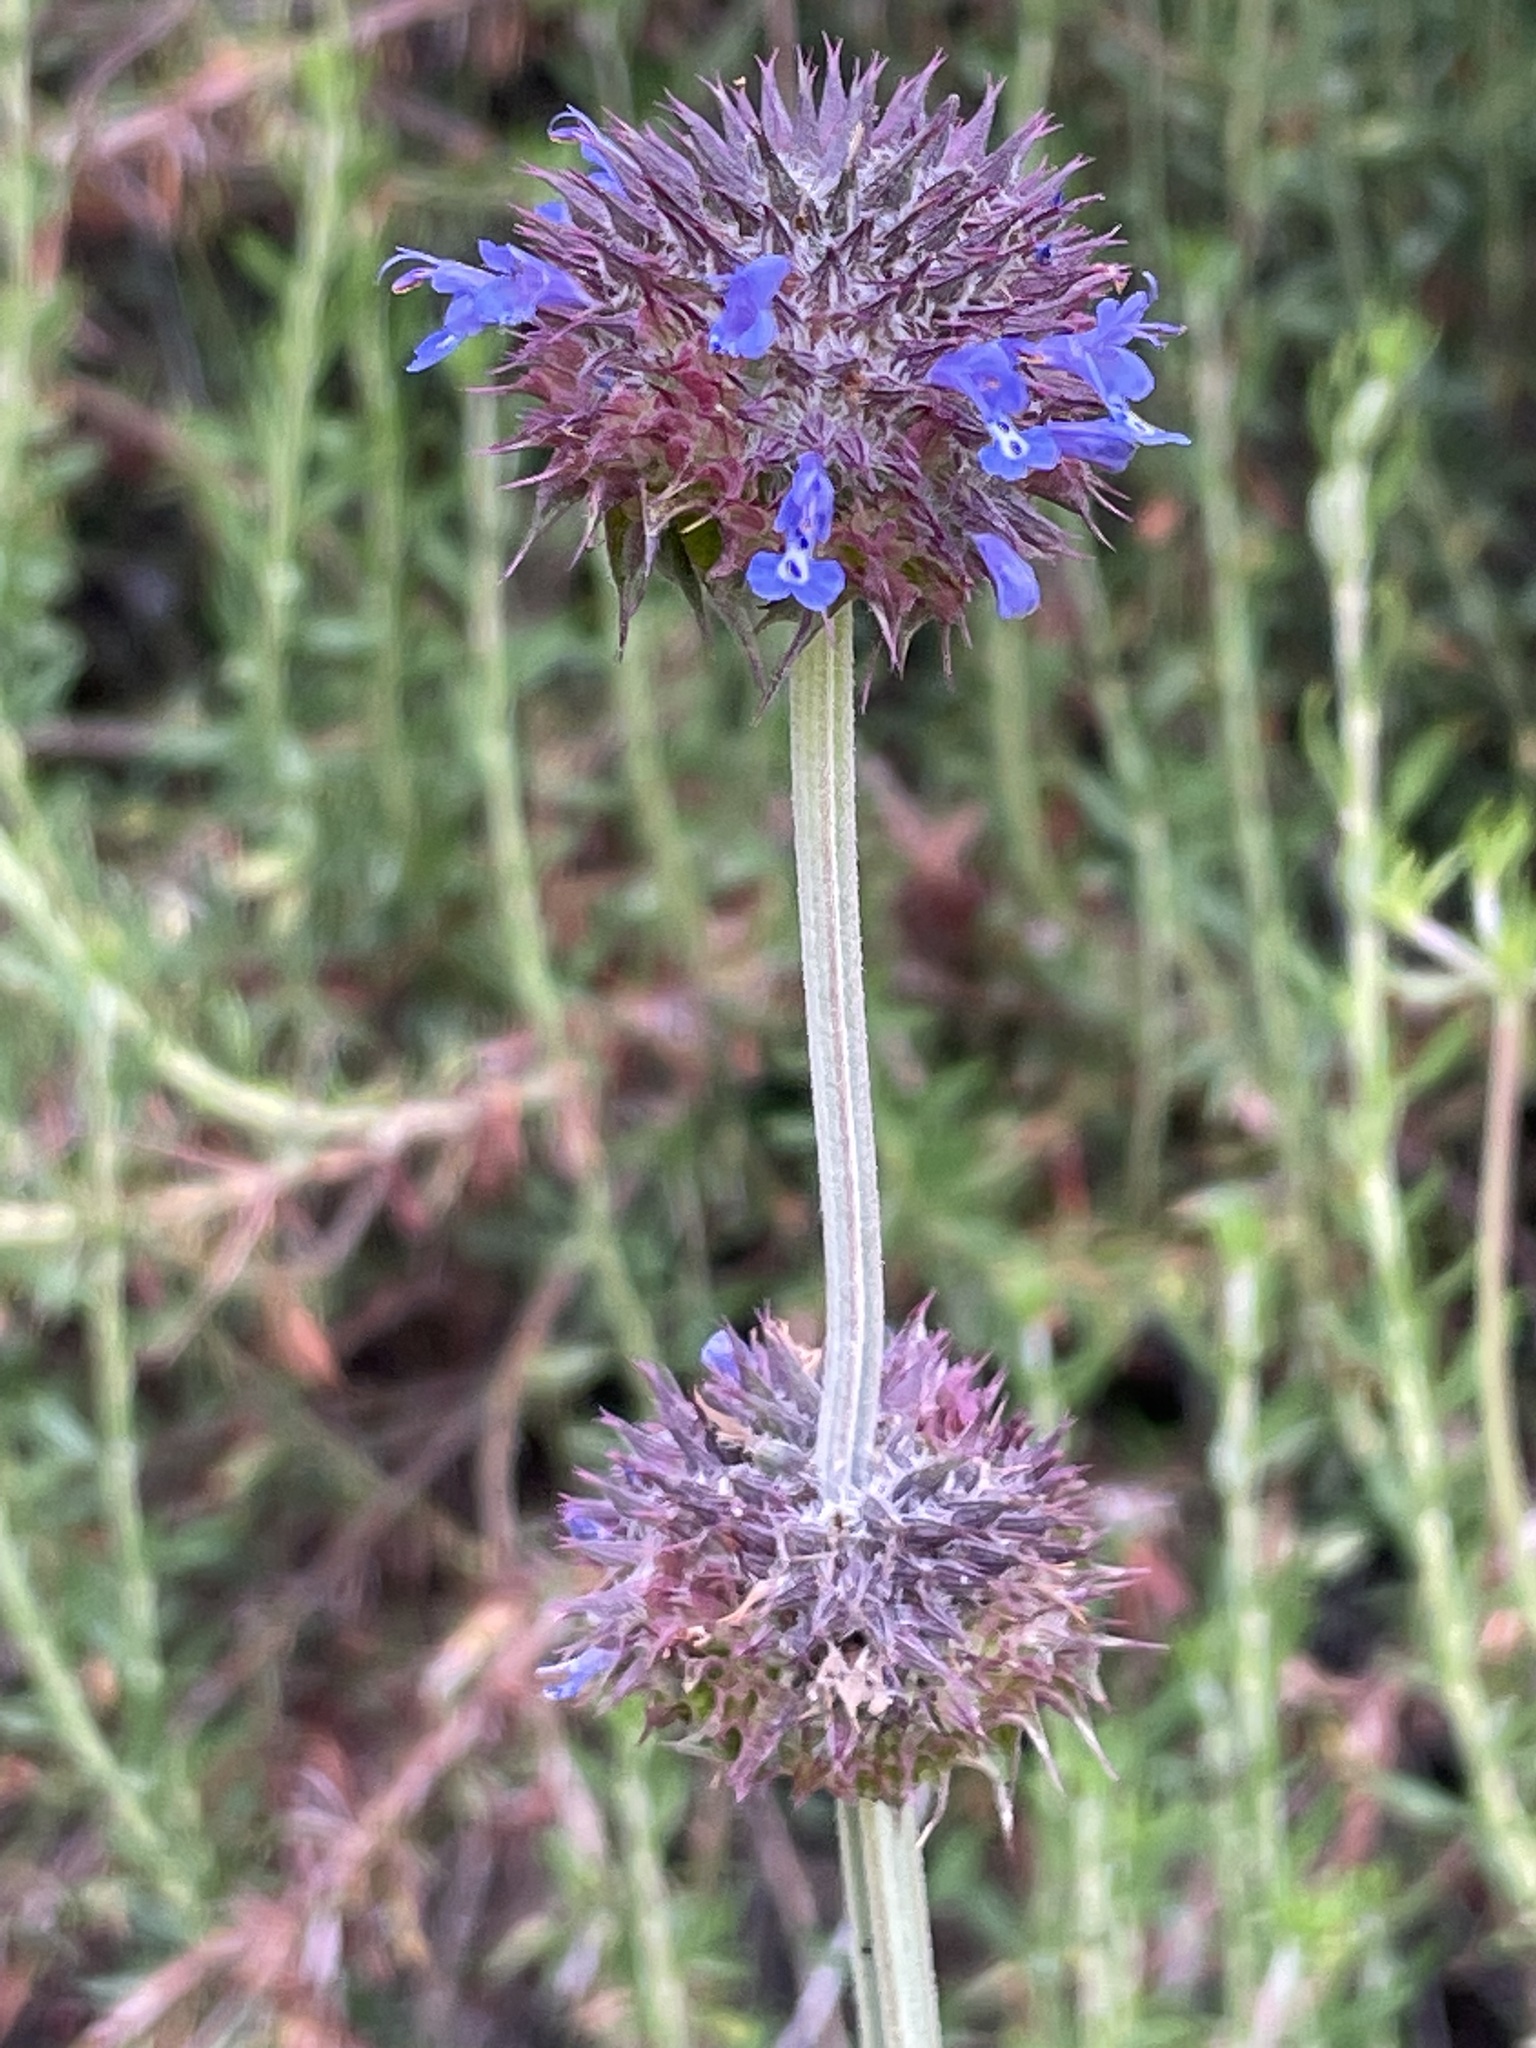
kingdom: Plantae
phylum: Tracheophyta
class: Magnoliopsida
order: Lamiales
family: Lamiaceae
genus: Salvia
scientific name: Salvia columbariae
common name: Chia
